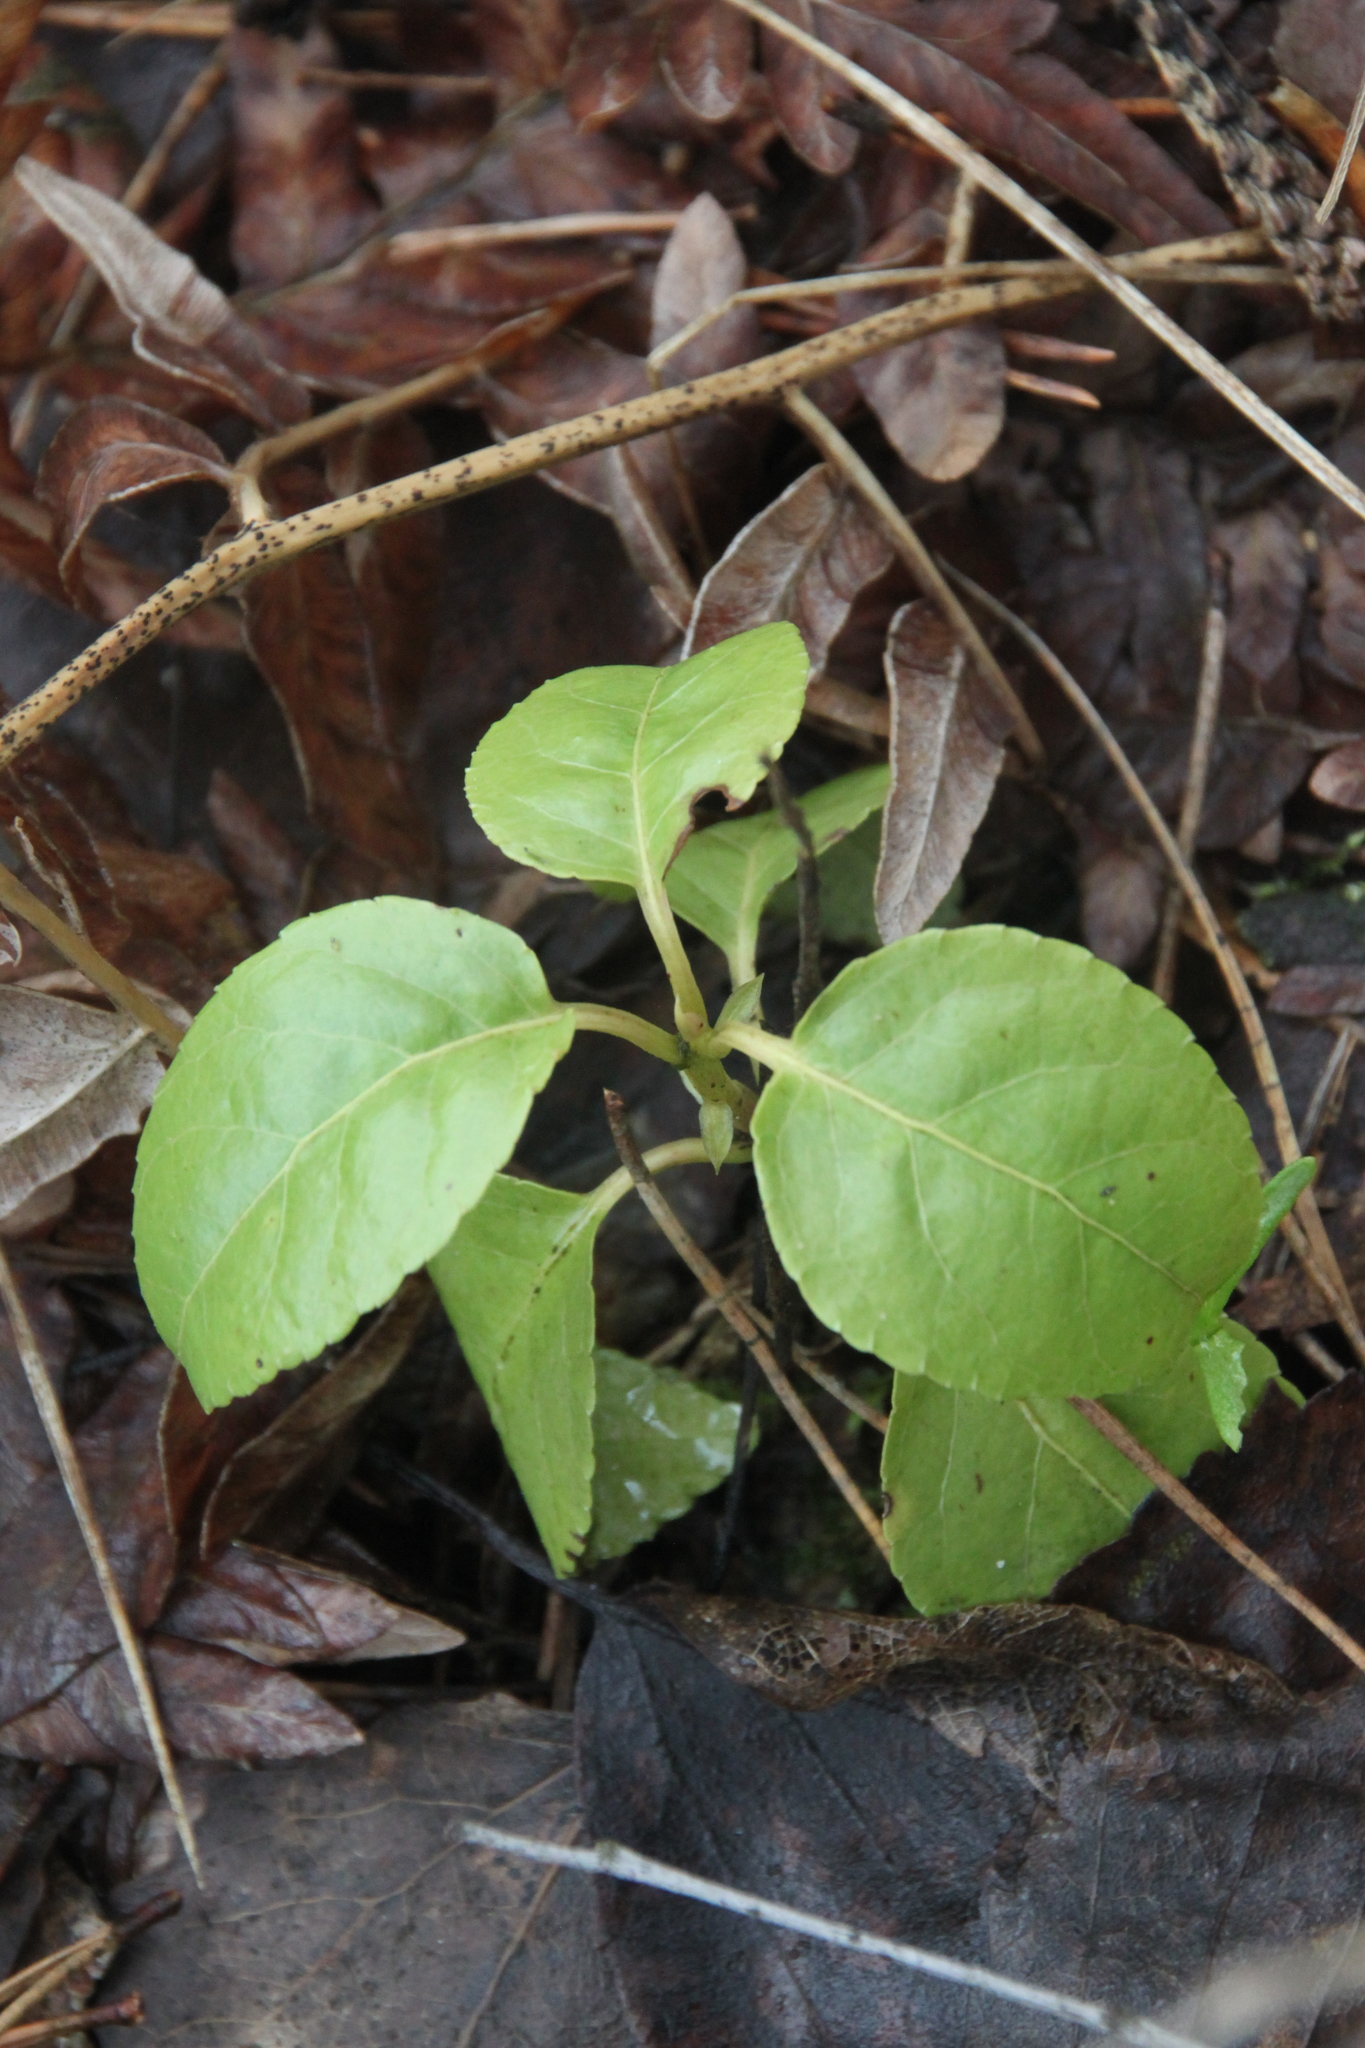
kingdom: Plantae
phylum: Tracheophyta
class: Magnoliopsida
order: Ericales
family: Ericaceae
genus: Orthilia
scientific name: Orthilia secunda
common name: One-sided orthilia
